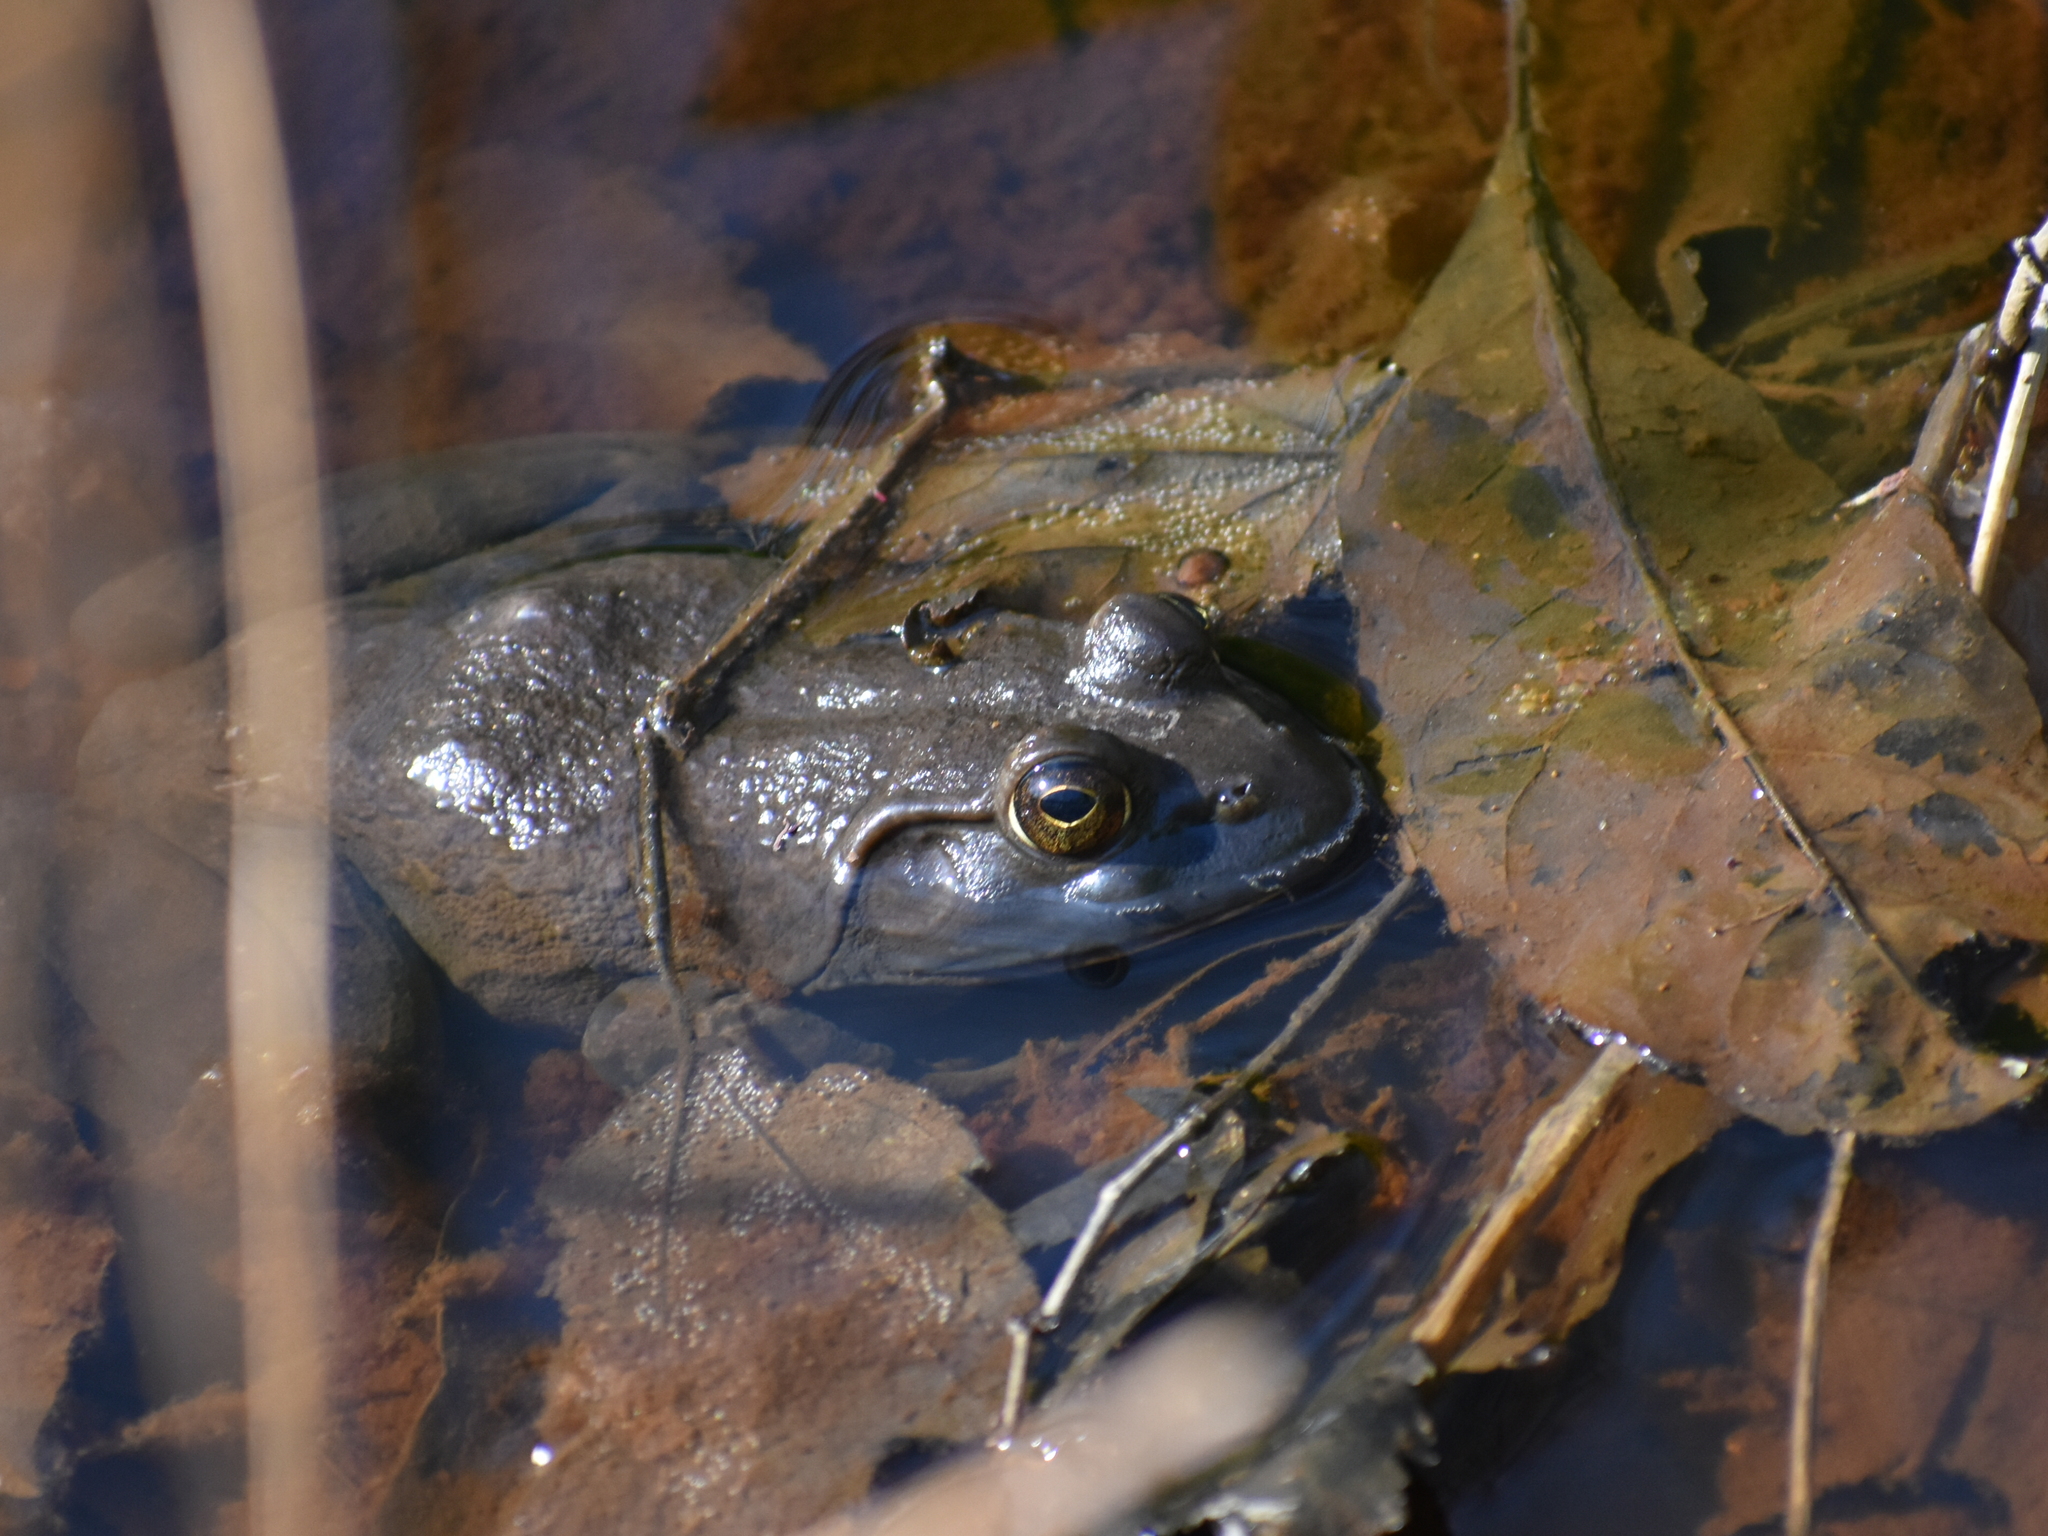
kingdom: Animalia
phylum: Chordata
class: Amphibia
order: Anura
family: Ranidae
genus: Lithobates
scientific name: Lithobates catesbeianus
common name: American bullfrog
